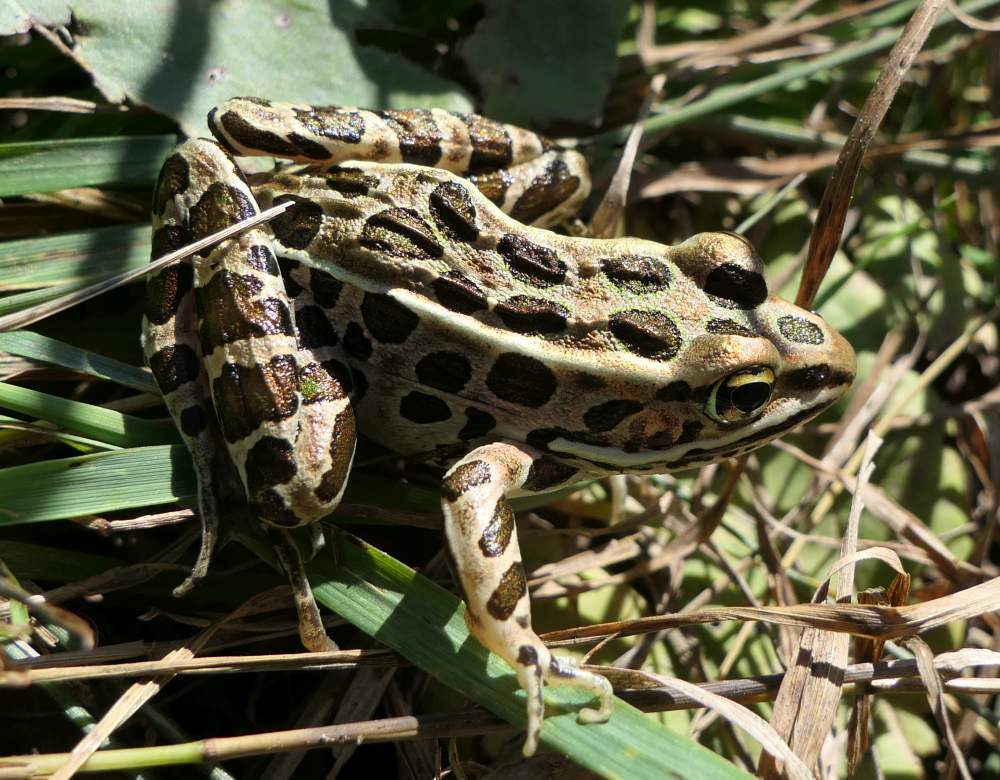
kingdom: Animalia
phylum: Chordata
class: Amphibia
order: Anura
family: Ranidae
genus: Lithobates
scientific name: Lithobates pipiens
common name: Northern leopard frog
